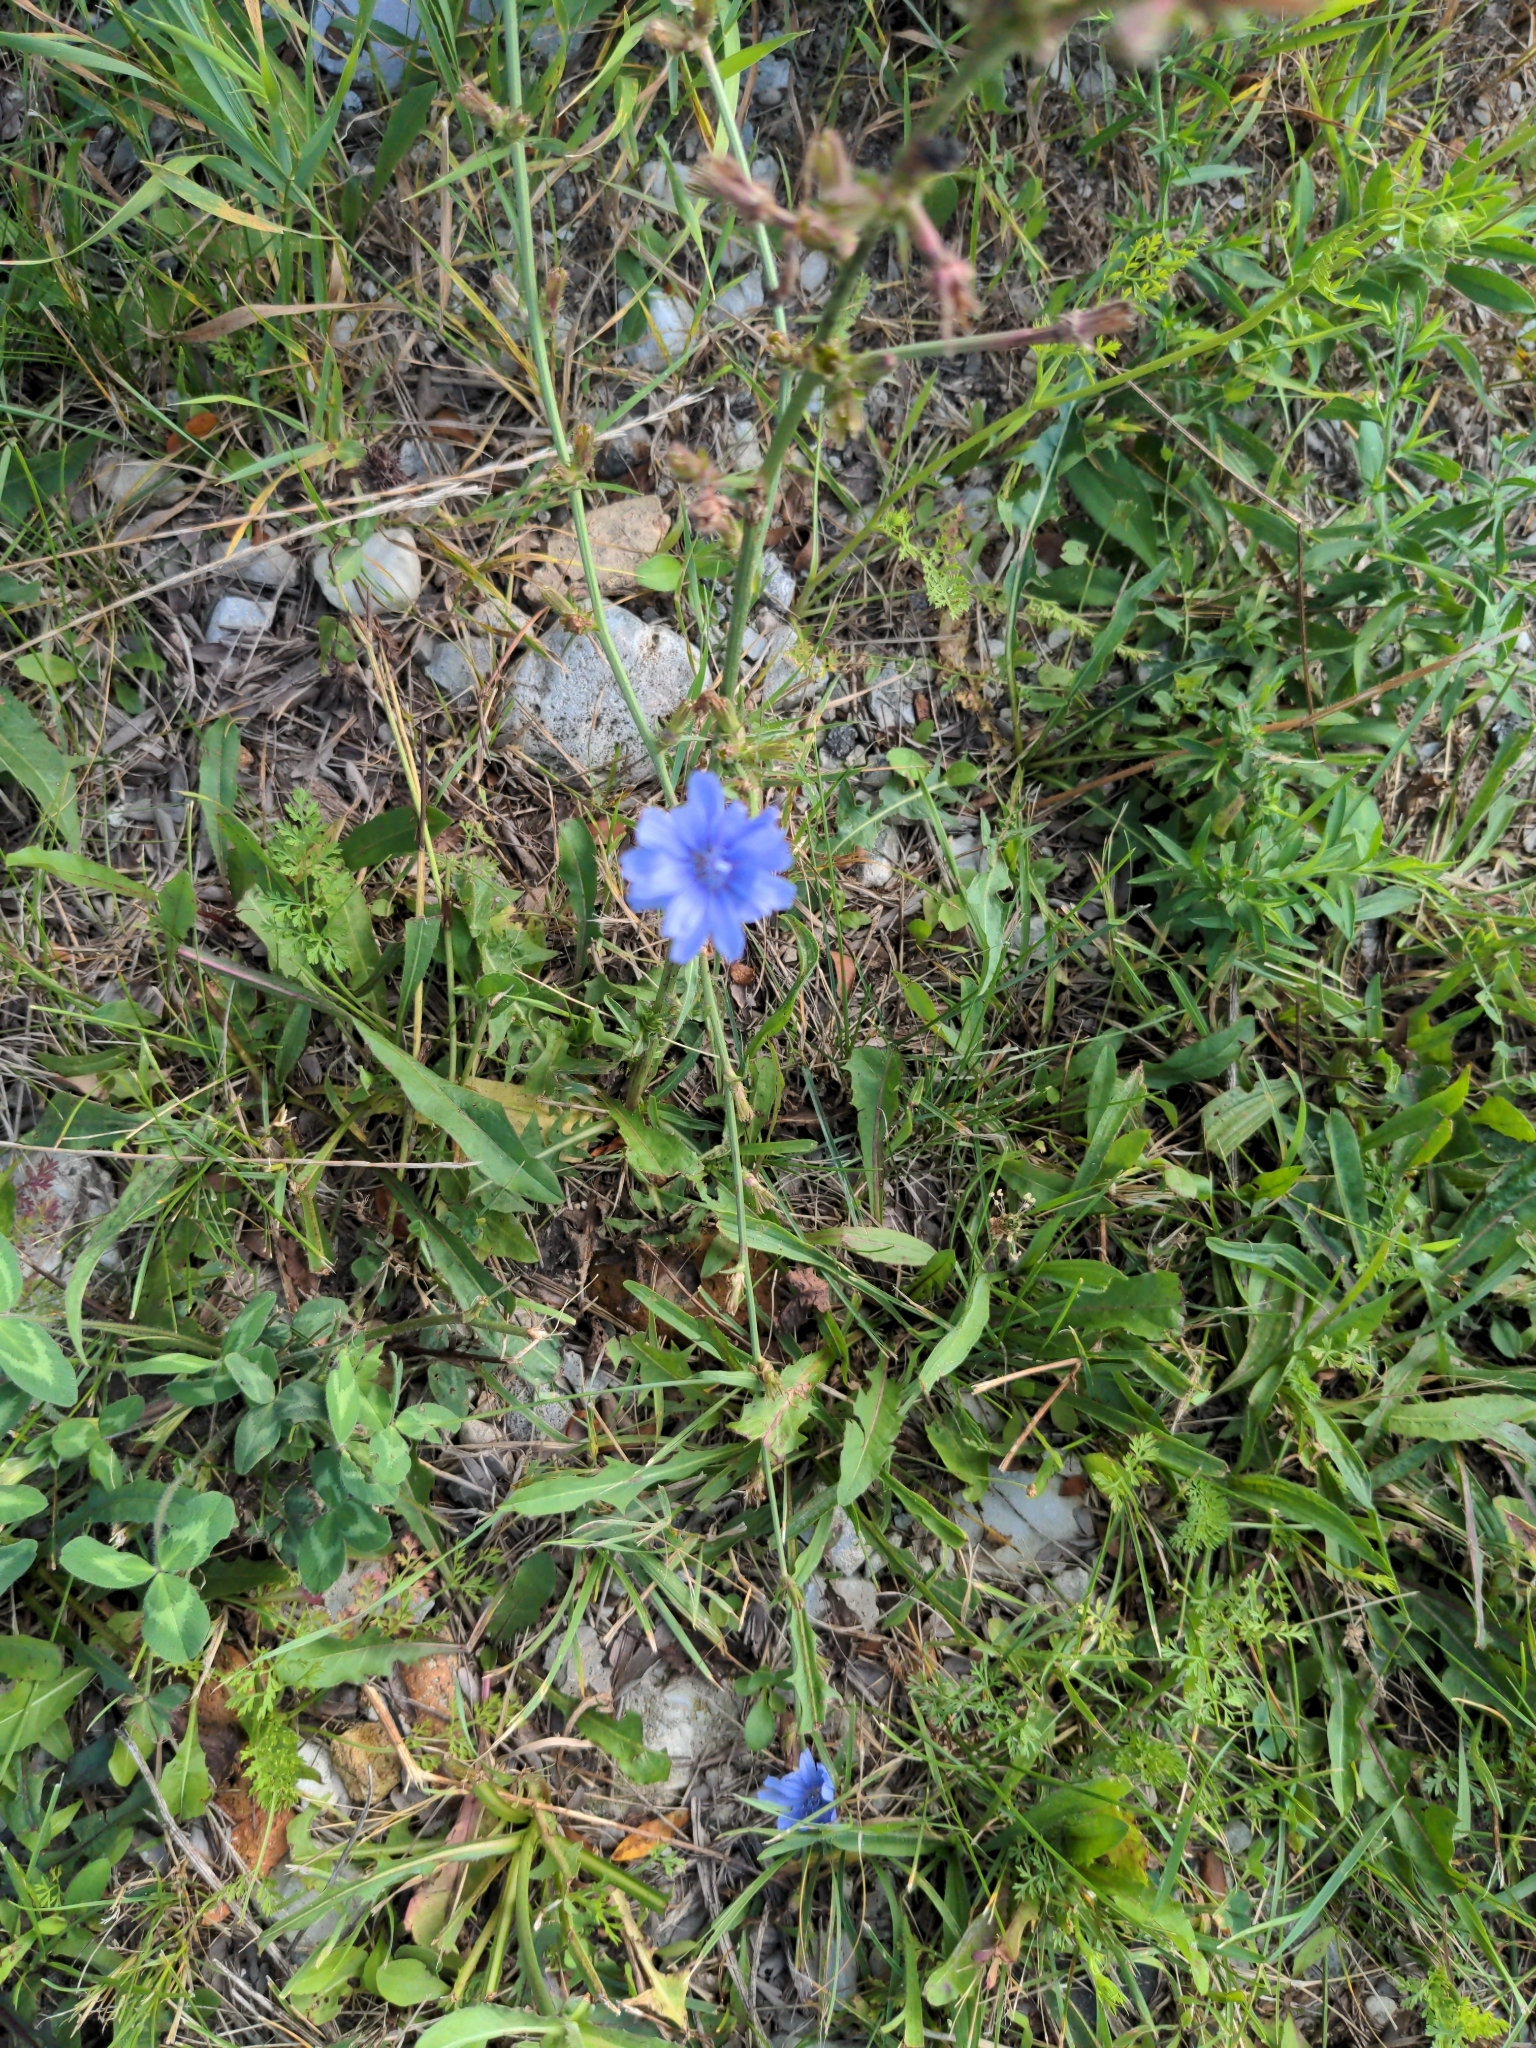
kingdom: Plantae
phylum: Tracheophyta
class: Magnoliopsida
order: Asterales
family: Asteraceae
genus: Cichorium
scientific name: Cichorium intybus
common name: Chicory
